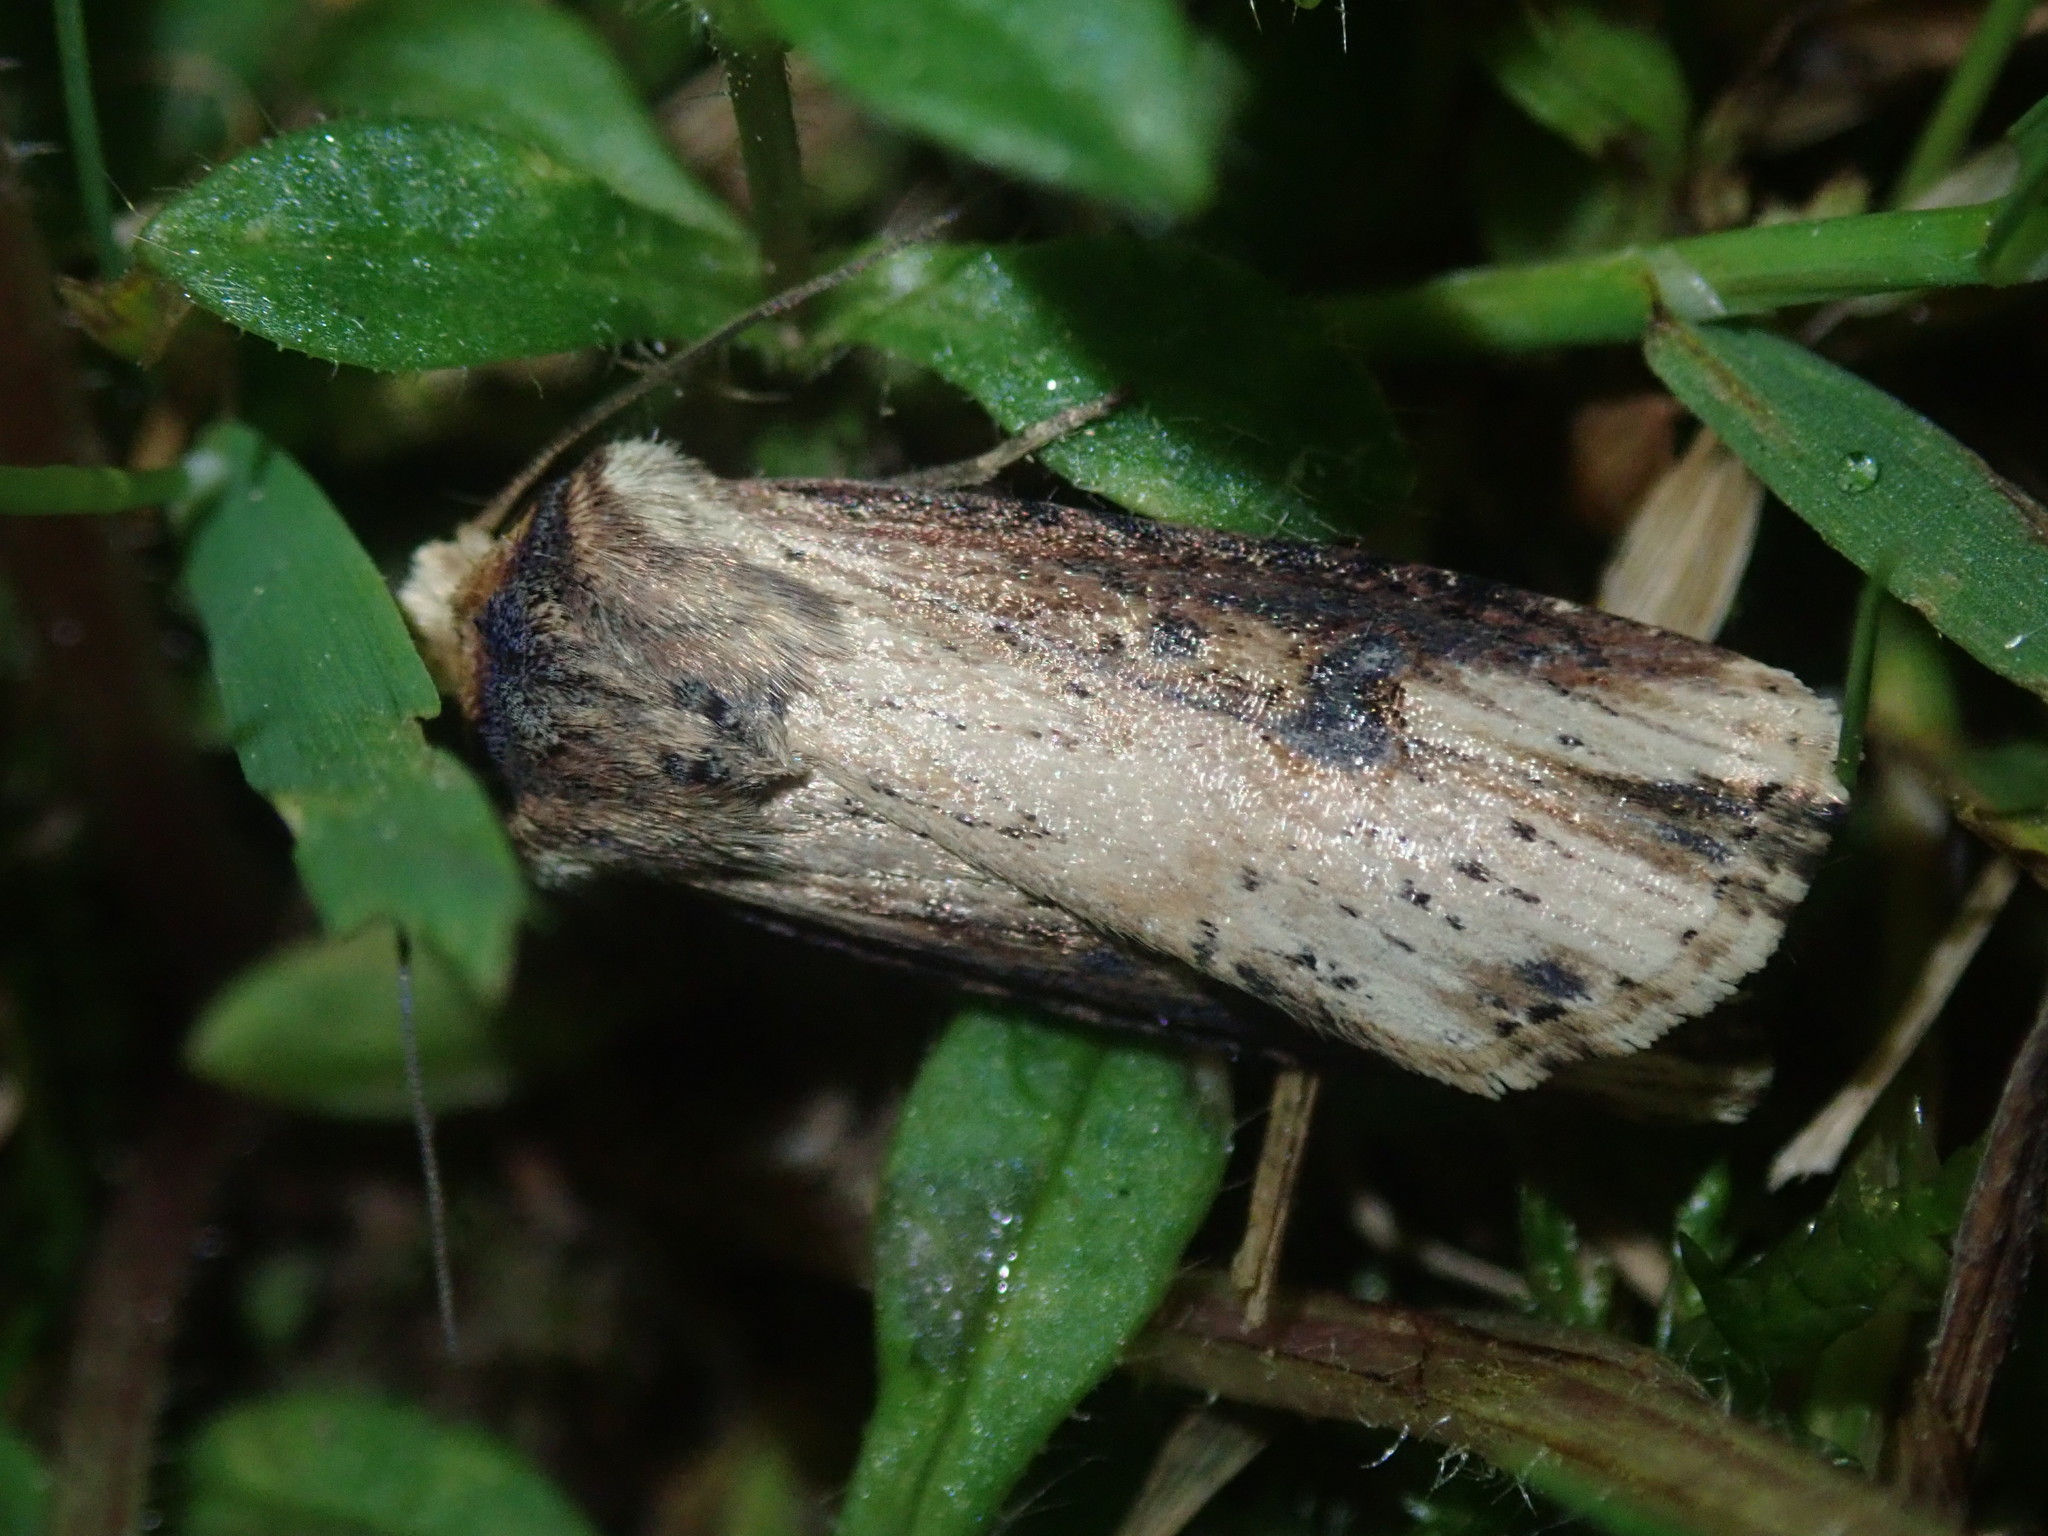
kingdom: Animalia
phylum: Arthropoda
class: Insecta
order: Lepidoptera
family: Noctuidae
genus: Axylia
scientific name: Axylia putris
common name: Flame
